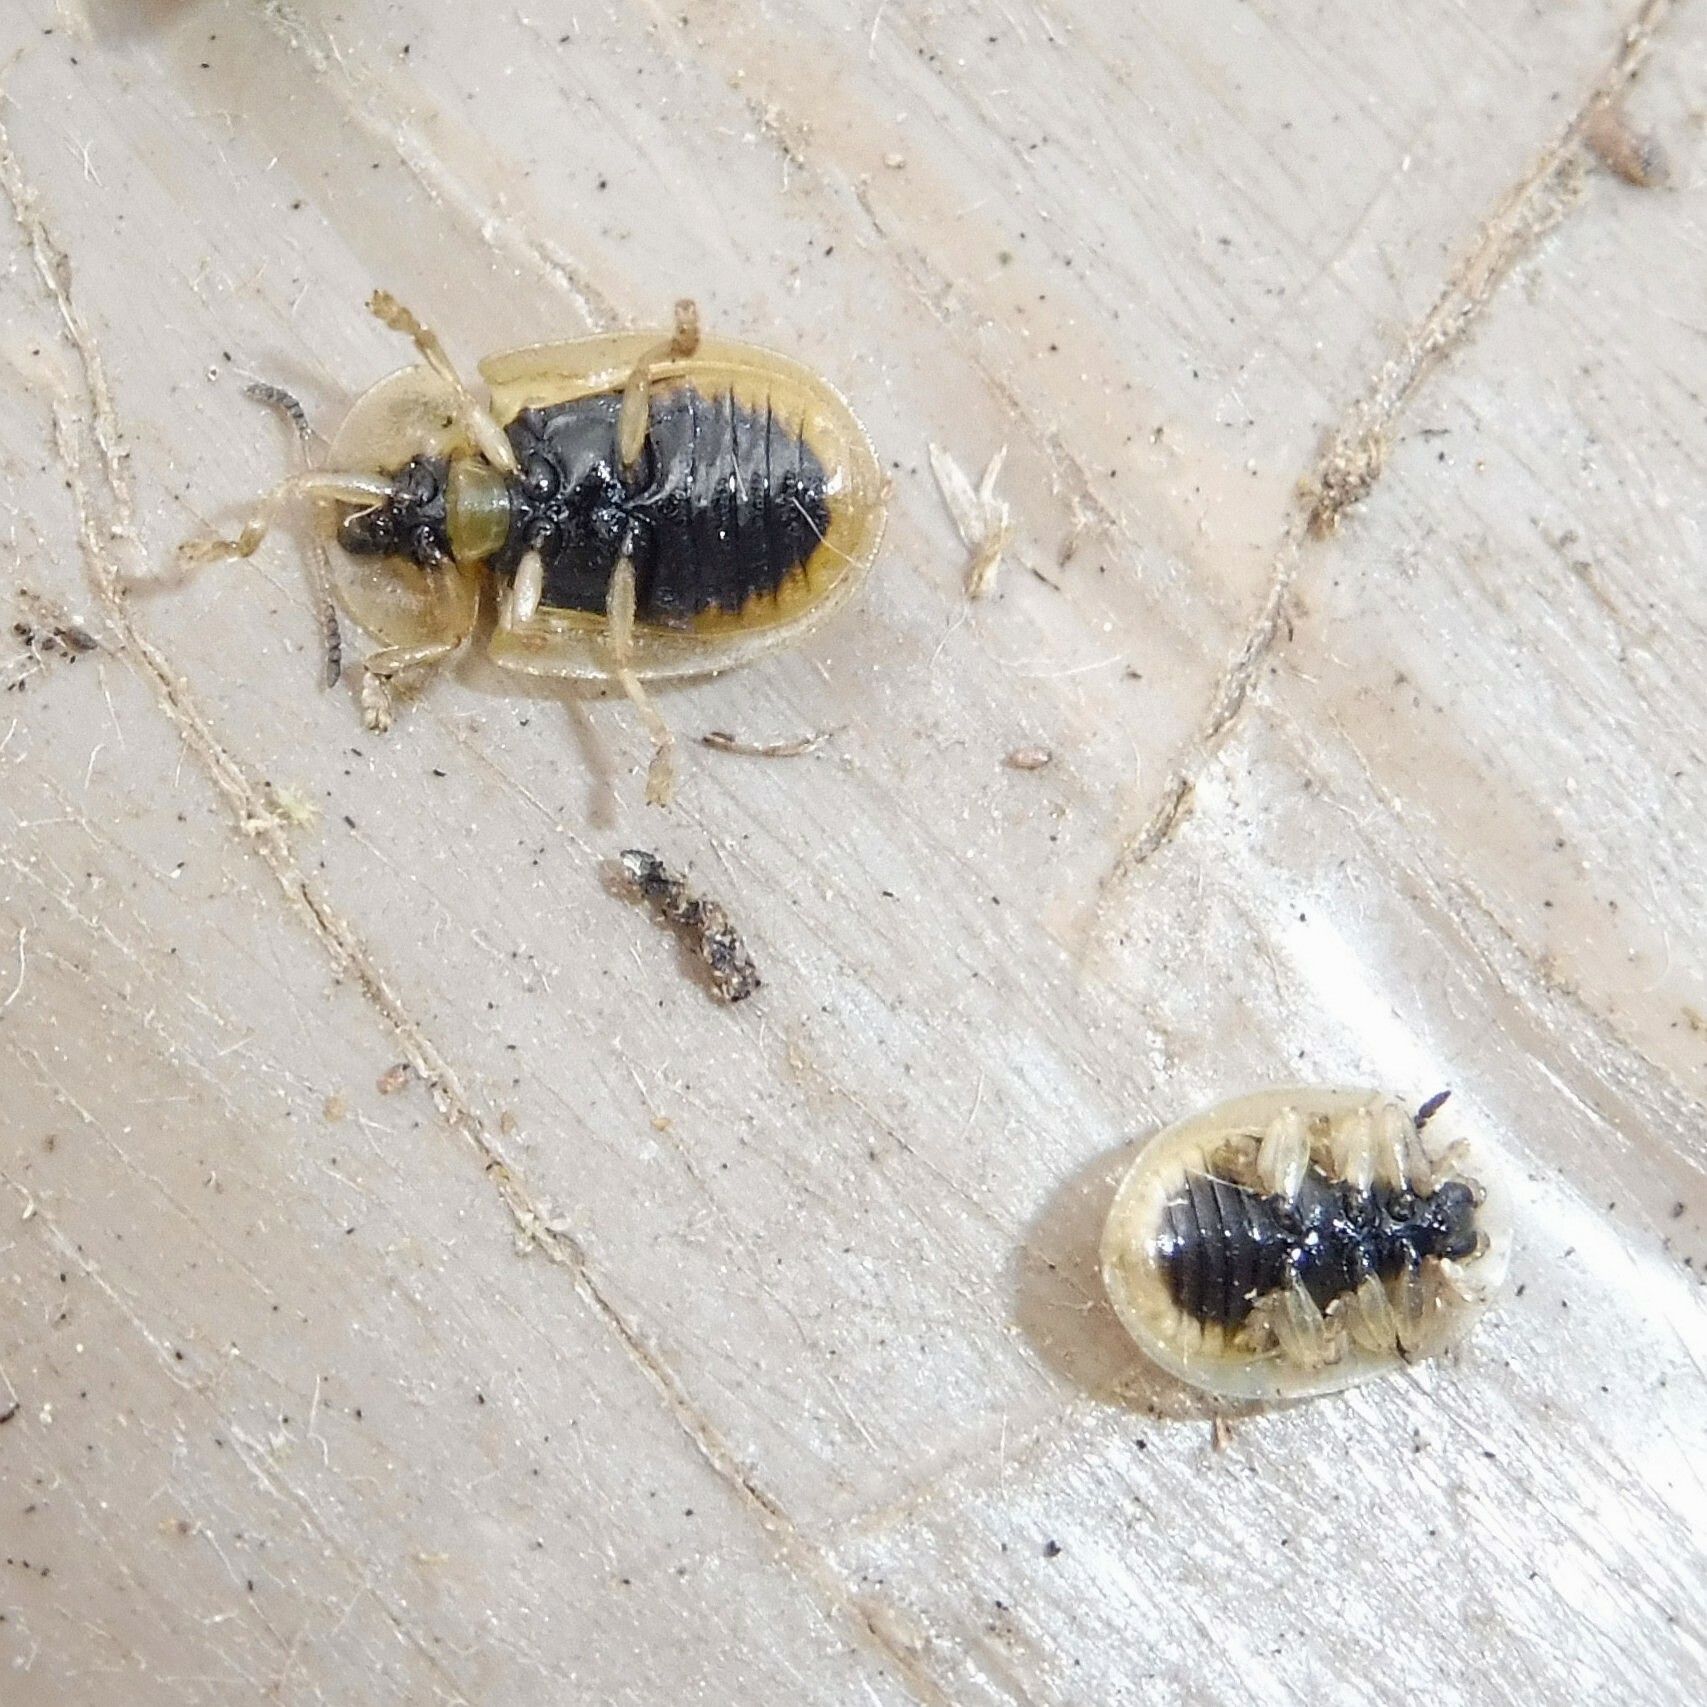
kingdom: Animalia
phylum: Arthropoda
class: Insecta
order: Coleoptera
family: Chrysomelidae
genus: Cassida
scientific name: Cassida flaveola
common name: Pale tortoise beetle
